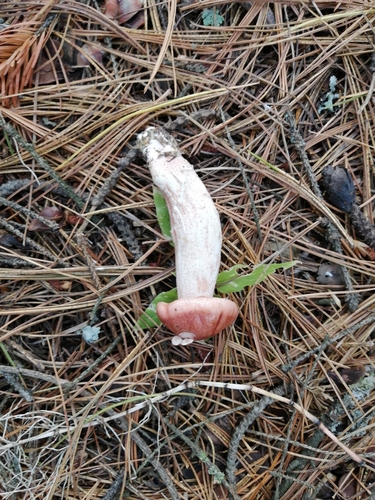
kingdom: Fungi
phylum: Basidiomycota
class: Agaricomycetes
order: Agaricales
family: Hygrophoraceae
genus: Hygrophorus
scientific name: Hygrophorus erubescens
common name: Blotched woodwax
